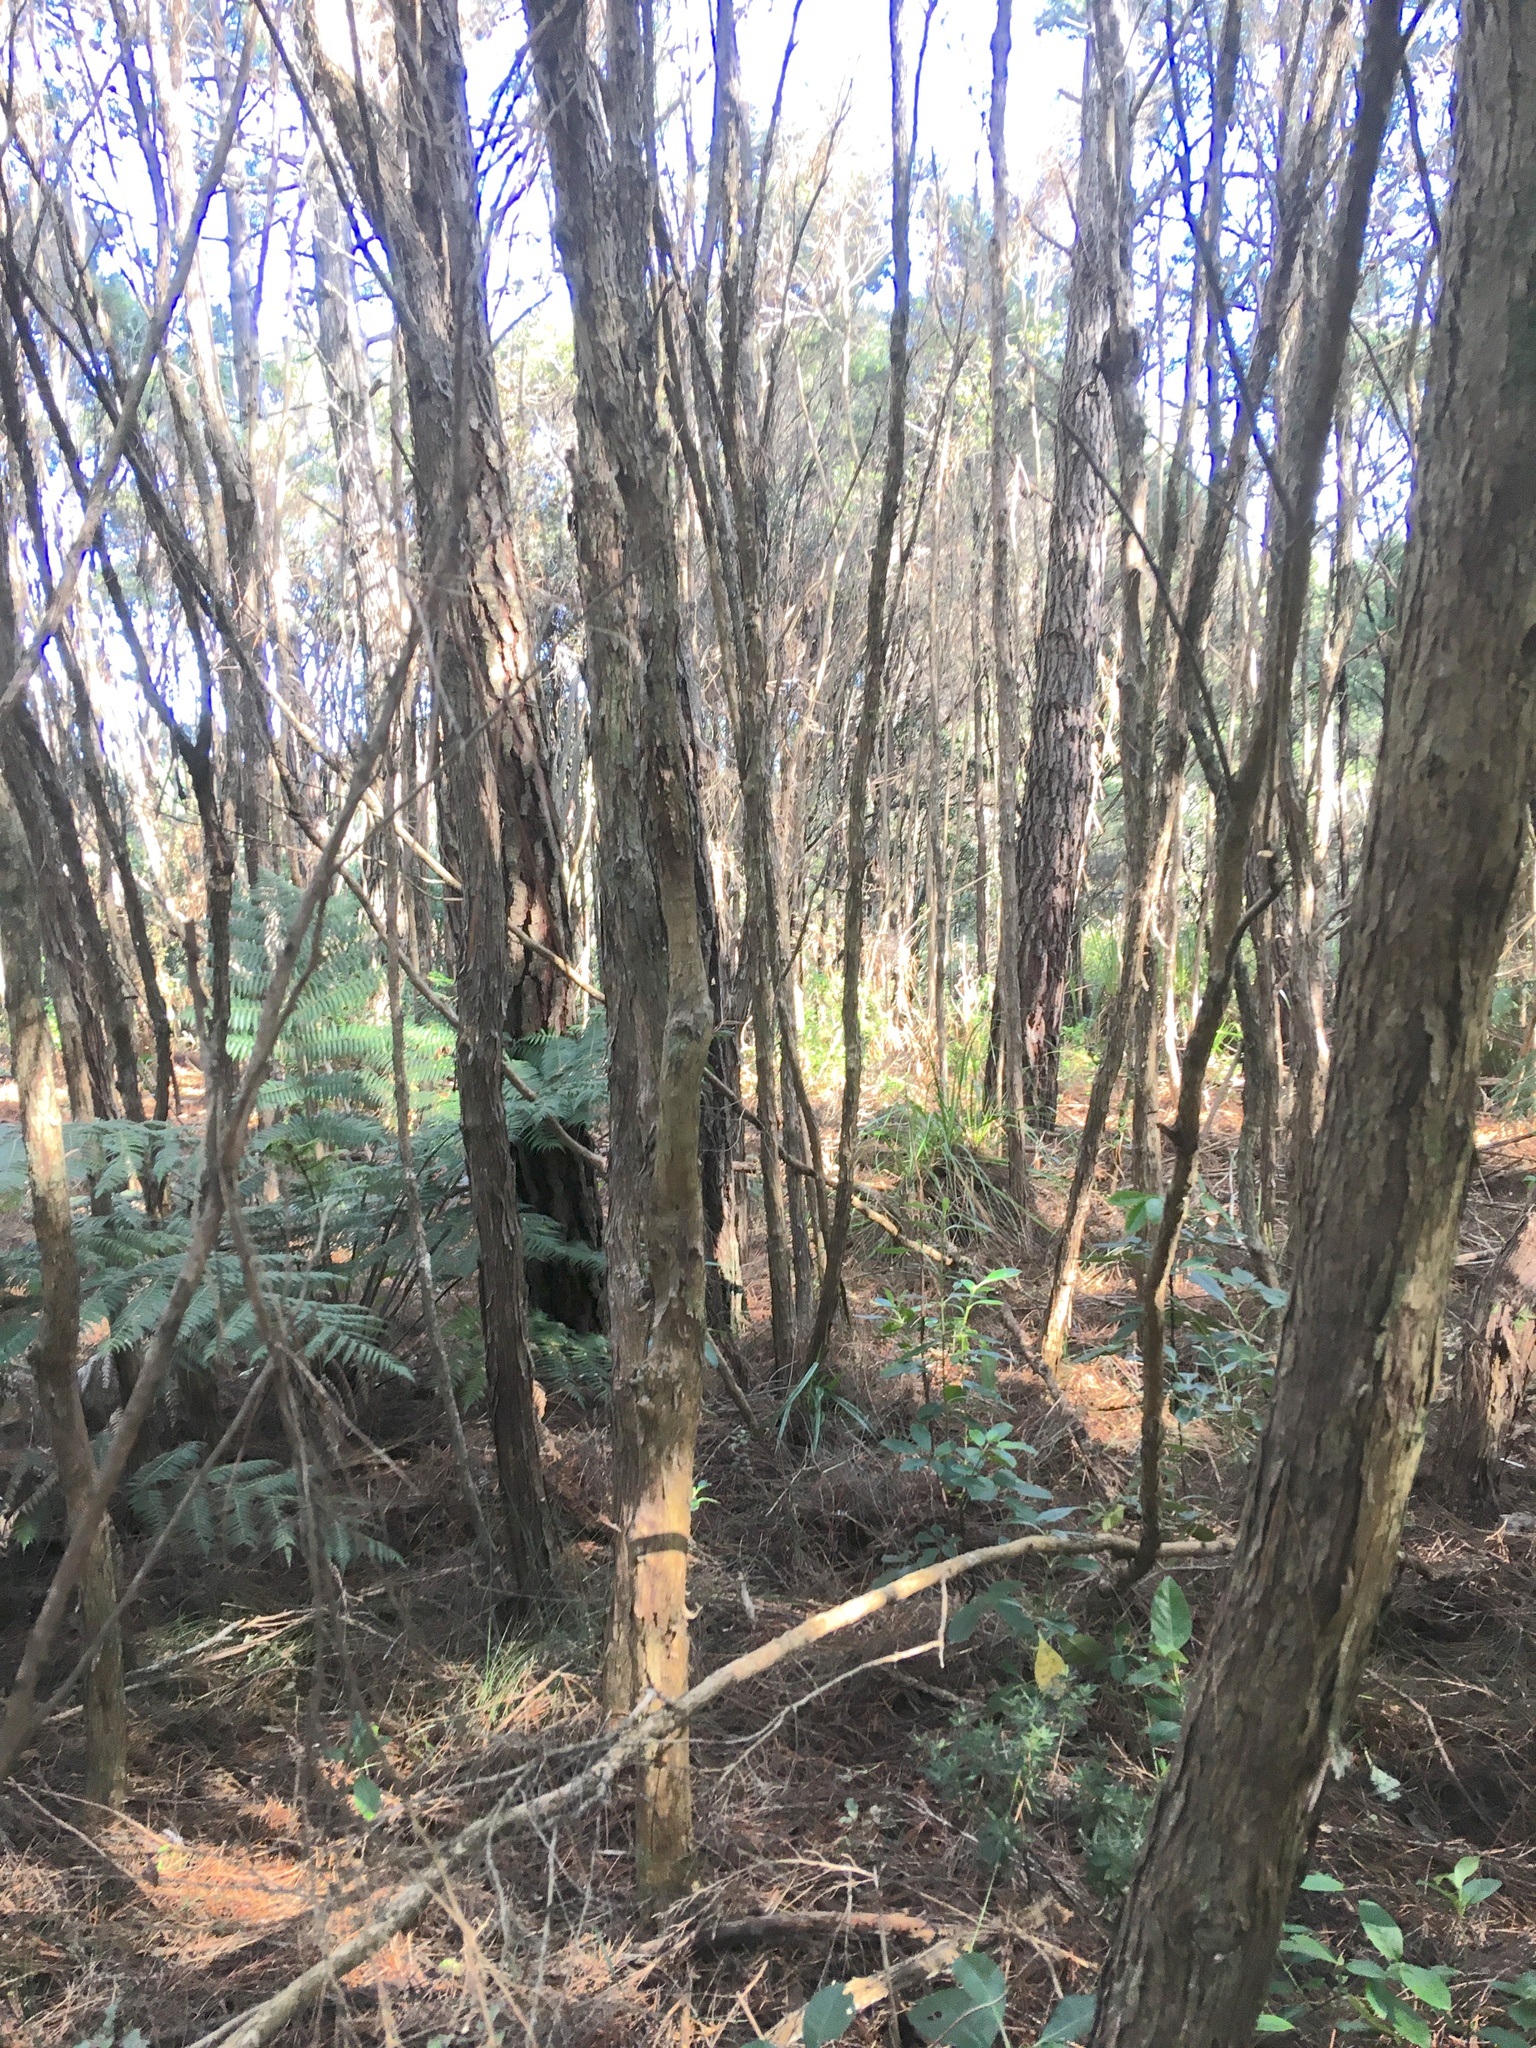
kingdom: Plantae
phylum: Tracheophyta
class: Polypodiopsida
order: Cyatheales
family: Cyatheaceae
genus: Alsophila
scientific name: Alsophila dealbata
